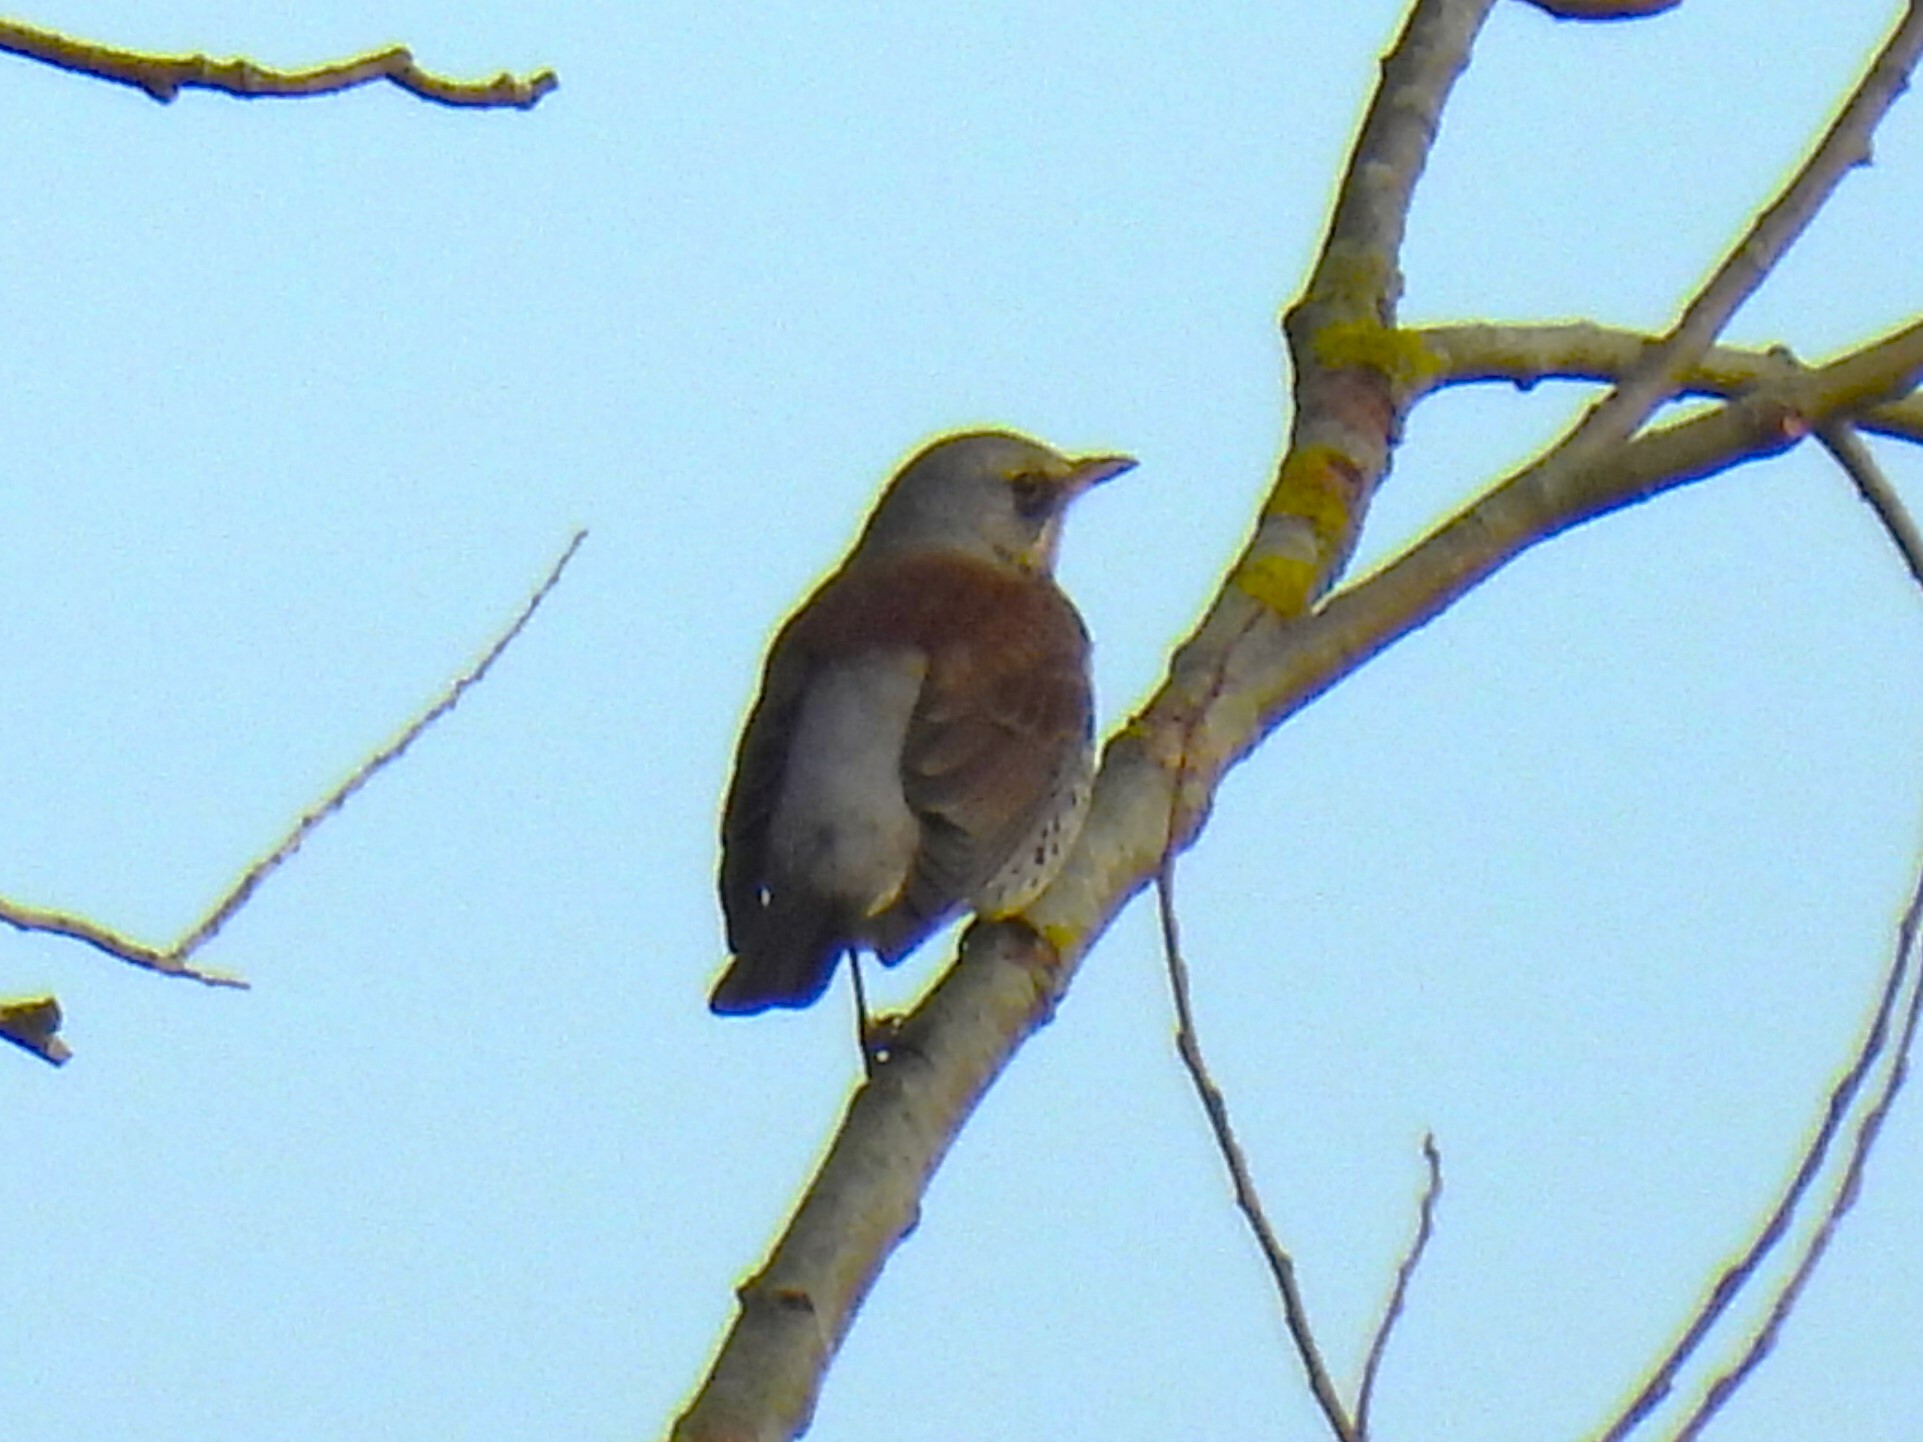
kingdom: Animalia
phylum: Chordata
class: Aves
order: Passeriformes
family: Turdidae
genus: Turdus
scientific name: Turdus pilaris
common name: Fieldfare
